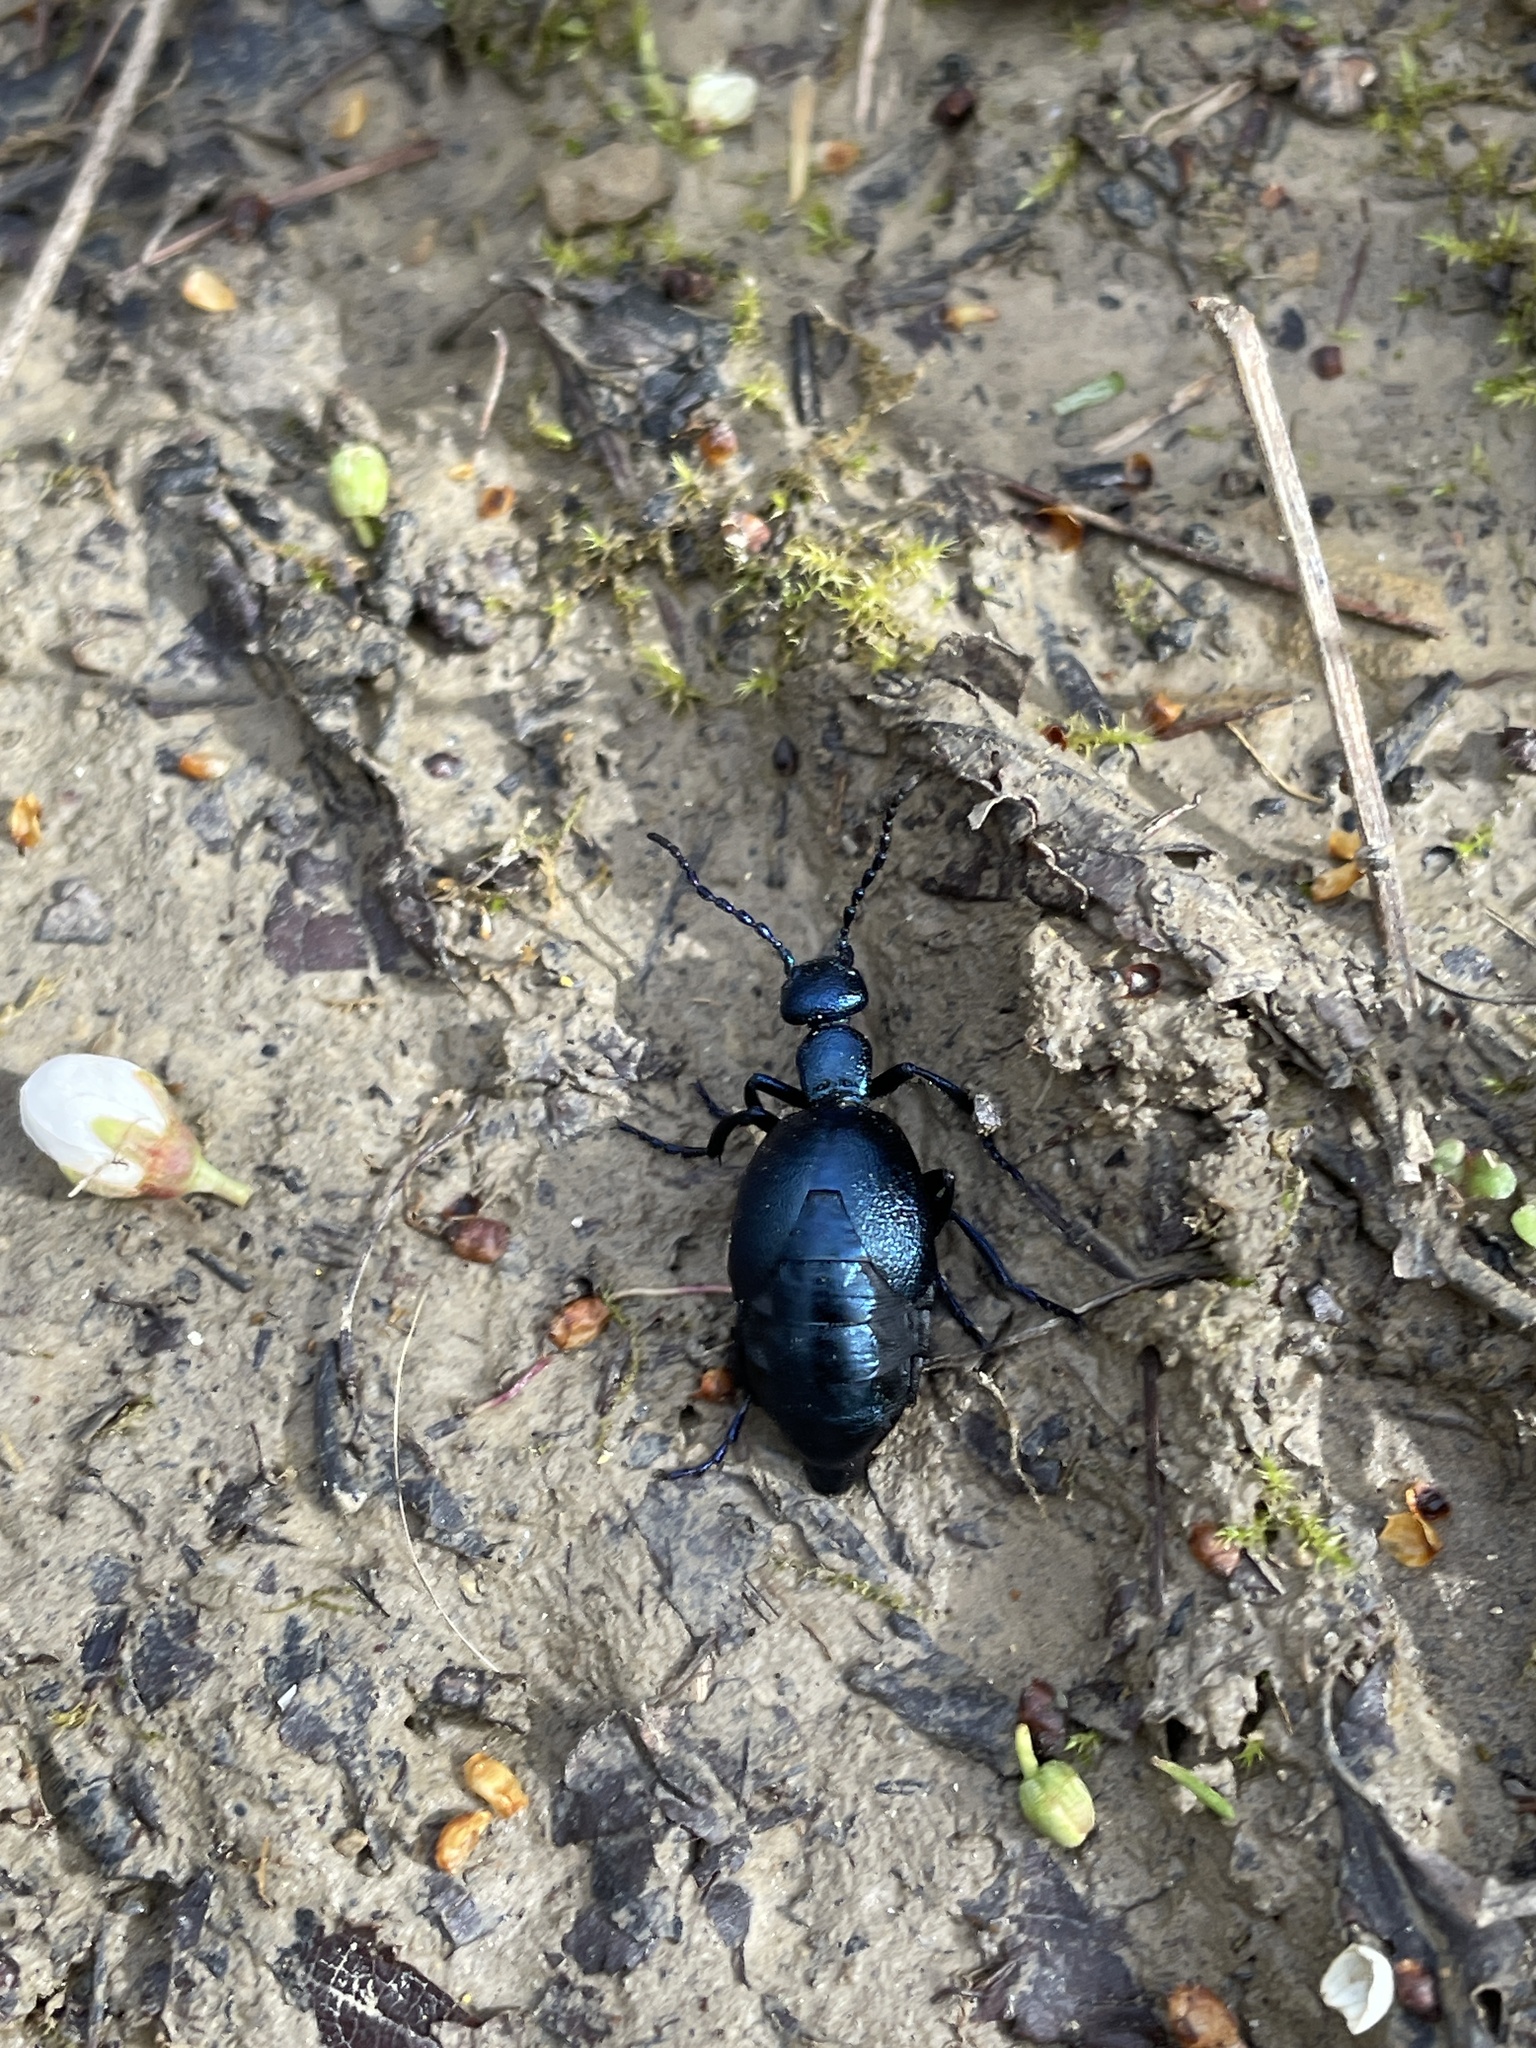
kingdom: Animalia
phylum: Arthropoda
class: Insecta
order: Coleoptera
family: Meloidae
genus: Meloe
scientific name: Meloe violaceus
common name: Violet oil-beetle
